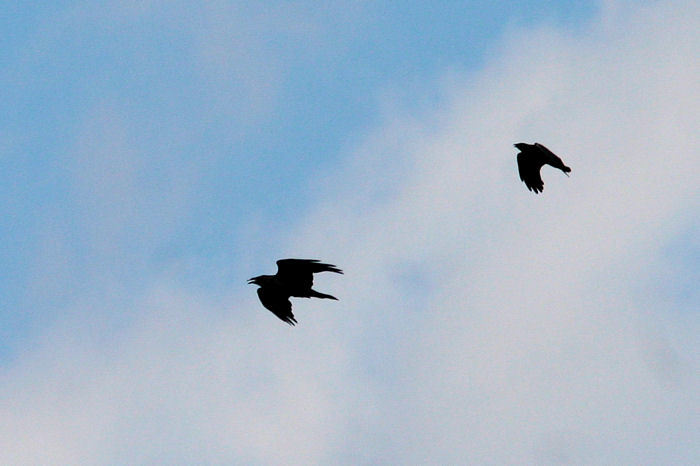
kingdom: Animalia
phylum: Chordata
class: Aves
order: Passeriformes
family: Corvidae
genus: Corvus
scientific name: Corvus corax
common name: Common raven
